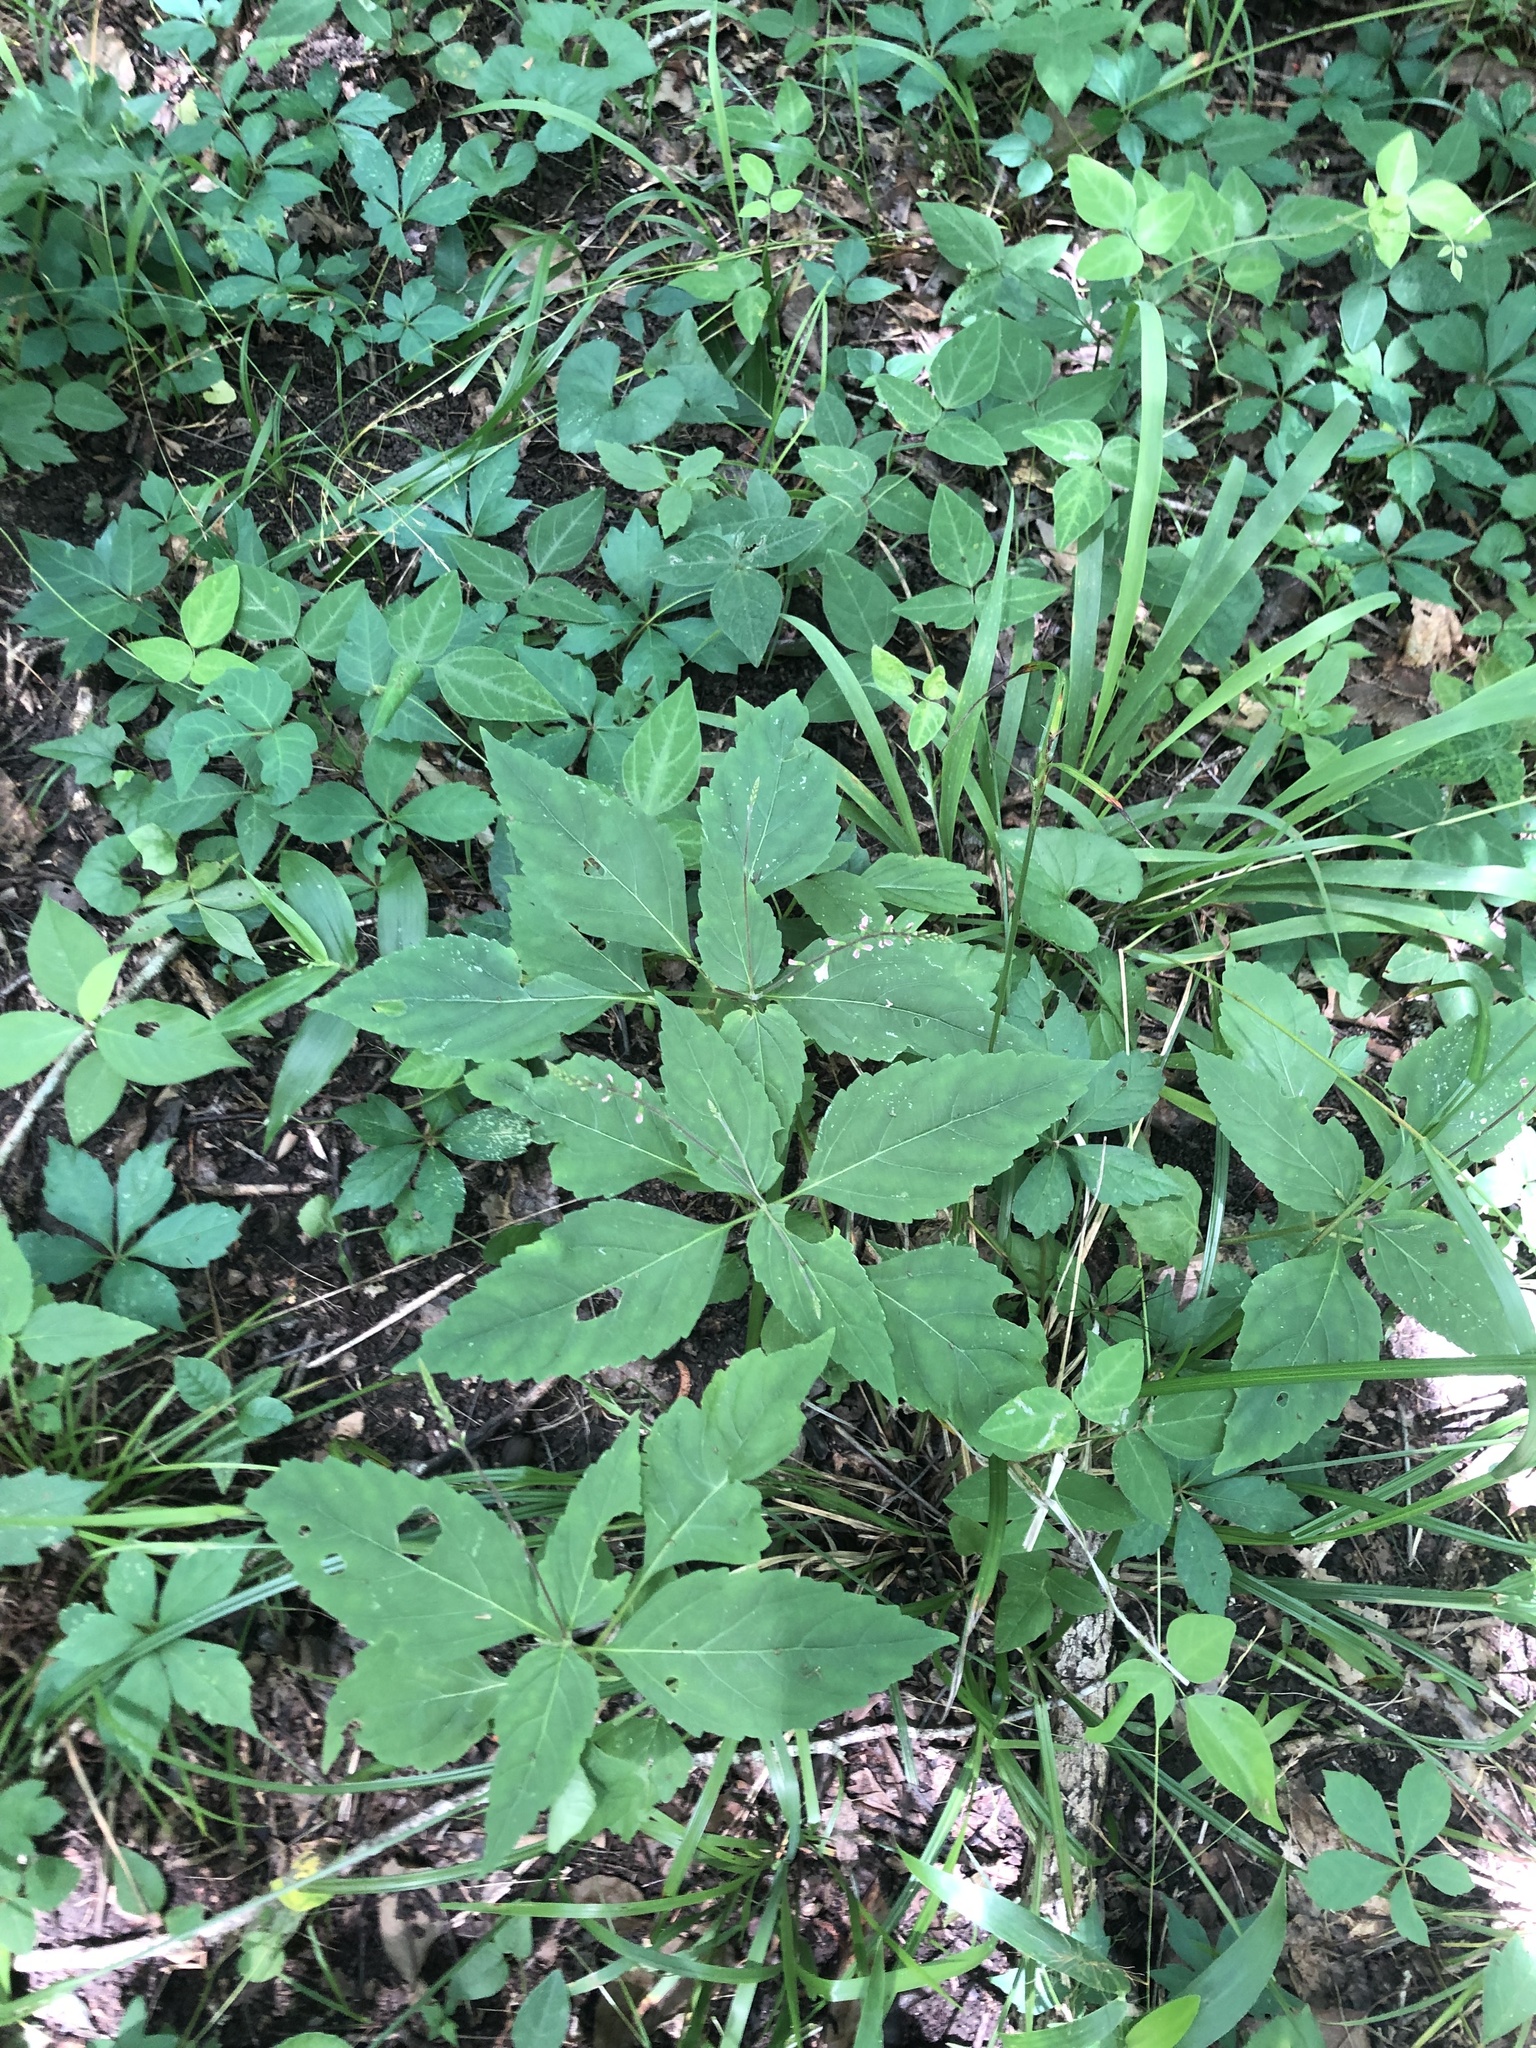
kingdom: Plantae
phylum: Tracheophyta
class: Magnoliopsida
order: Lamiales
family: Phrymaceae
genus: Phryma
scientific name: Phryma leptostachya
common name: American lopseed
